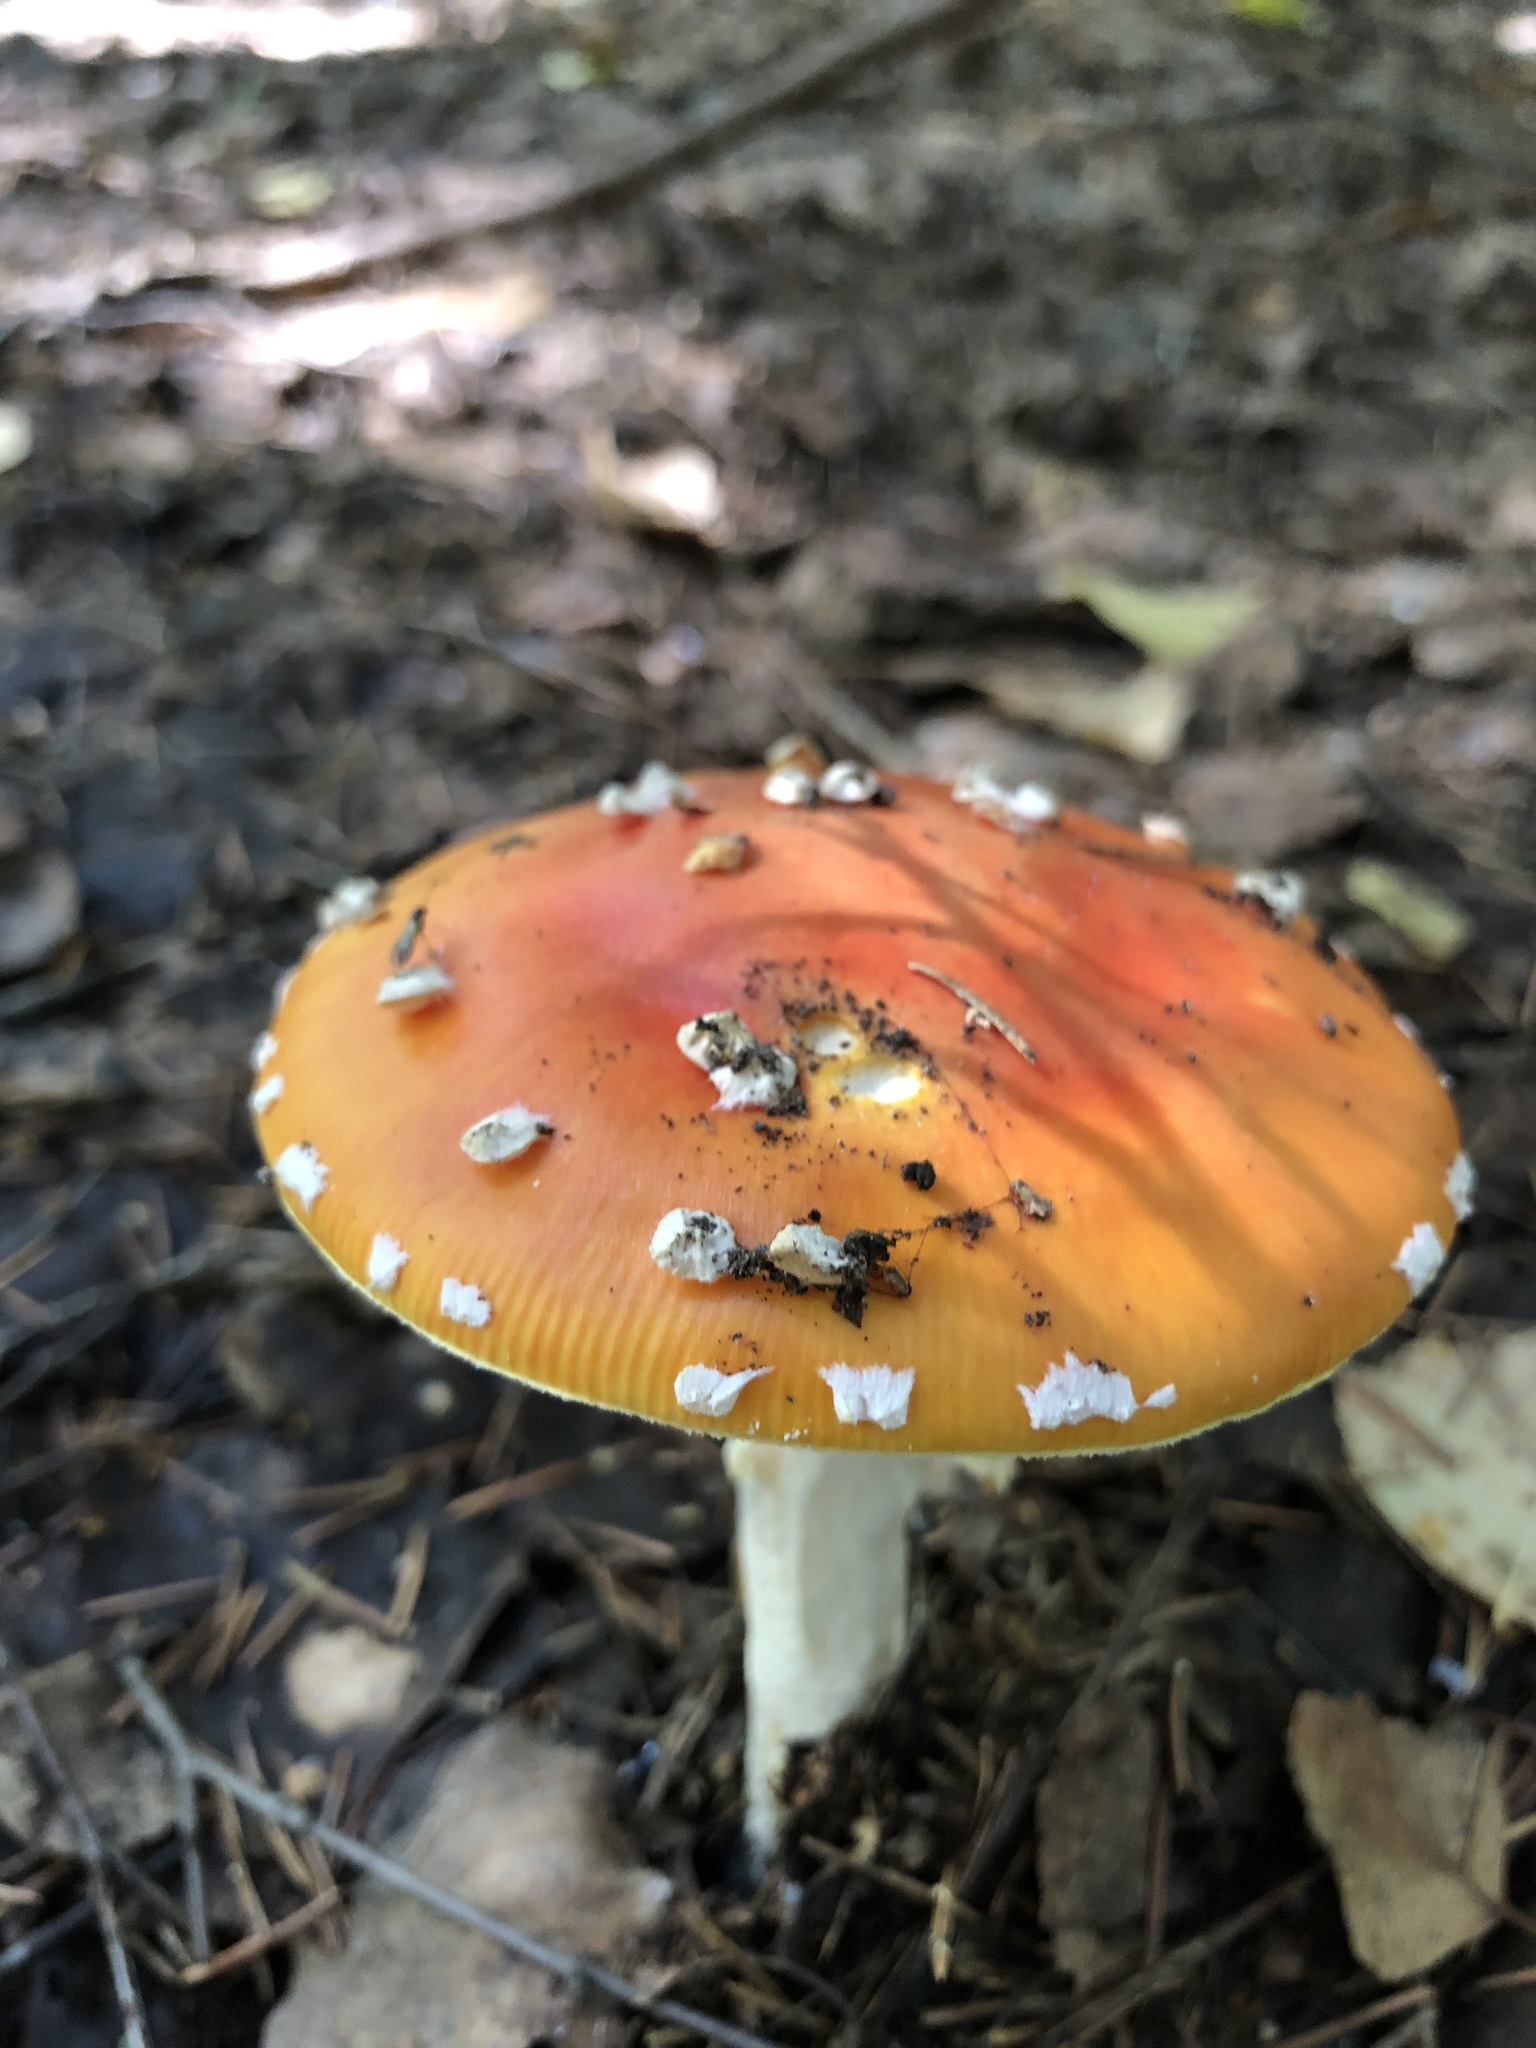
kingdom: Fungi
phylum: Basidiomycota
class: Agaricomycetes
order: Agaricales
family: Amanitaceae
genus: Amanita
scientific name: Amanita muscaria
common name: Fly agaric
